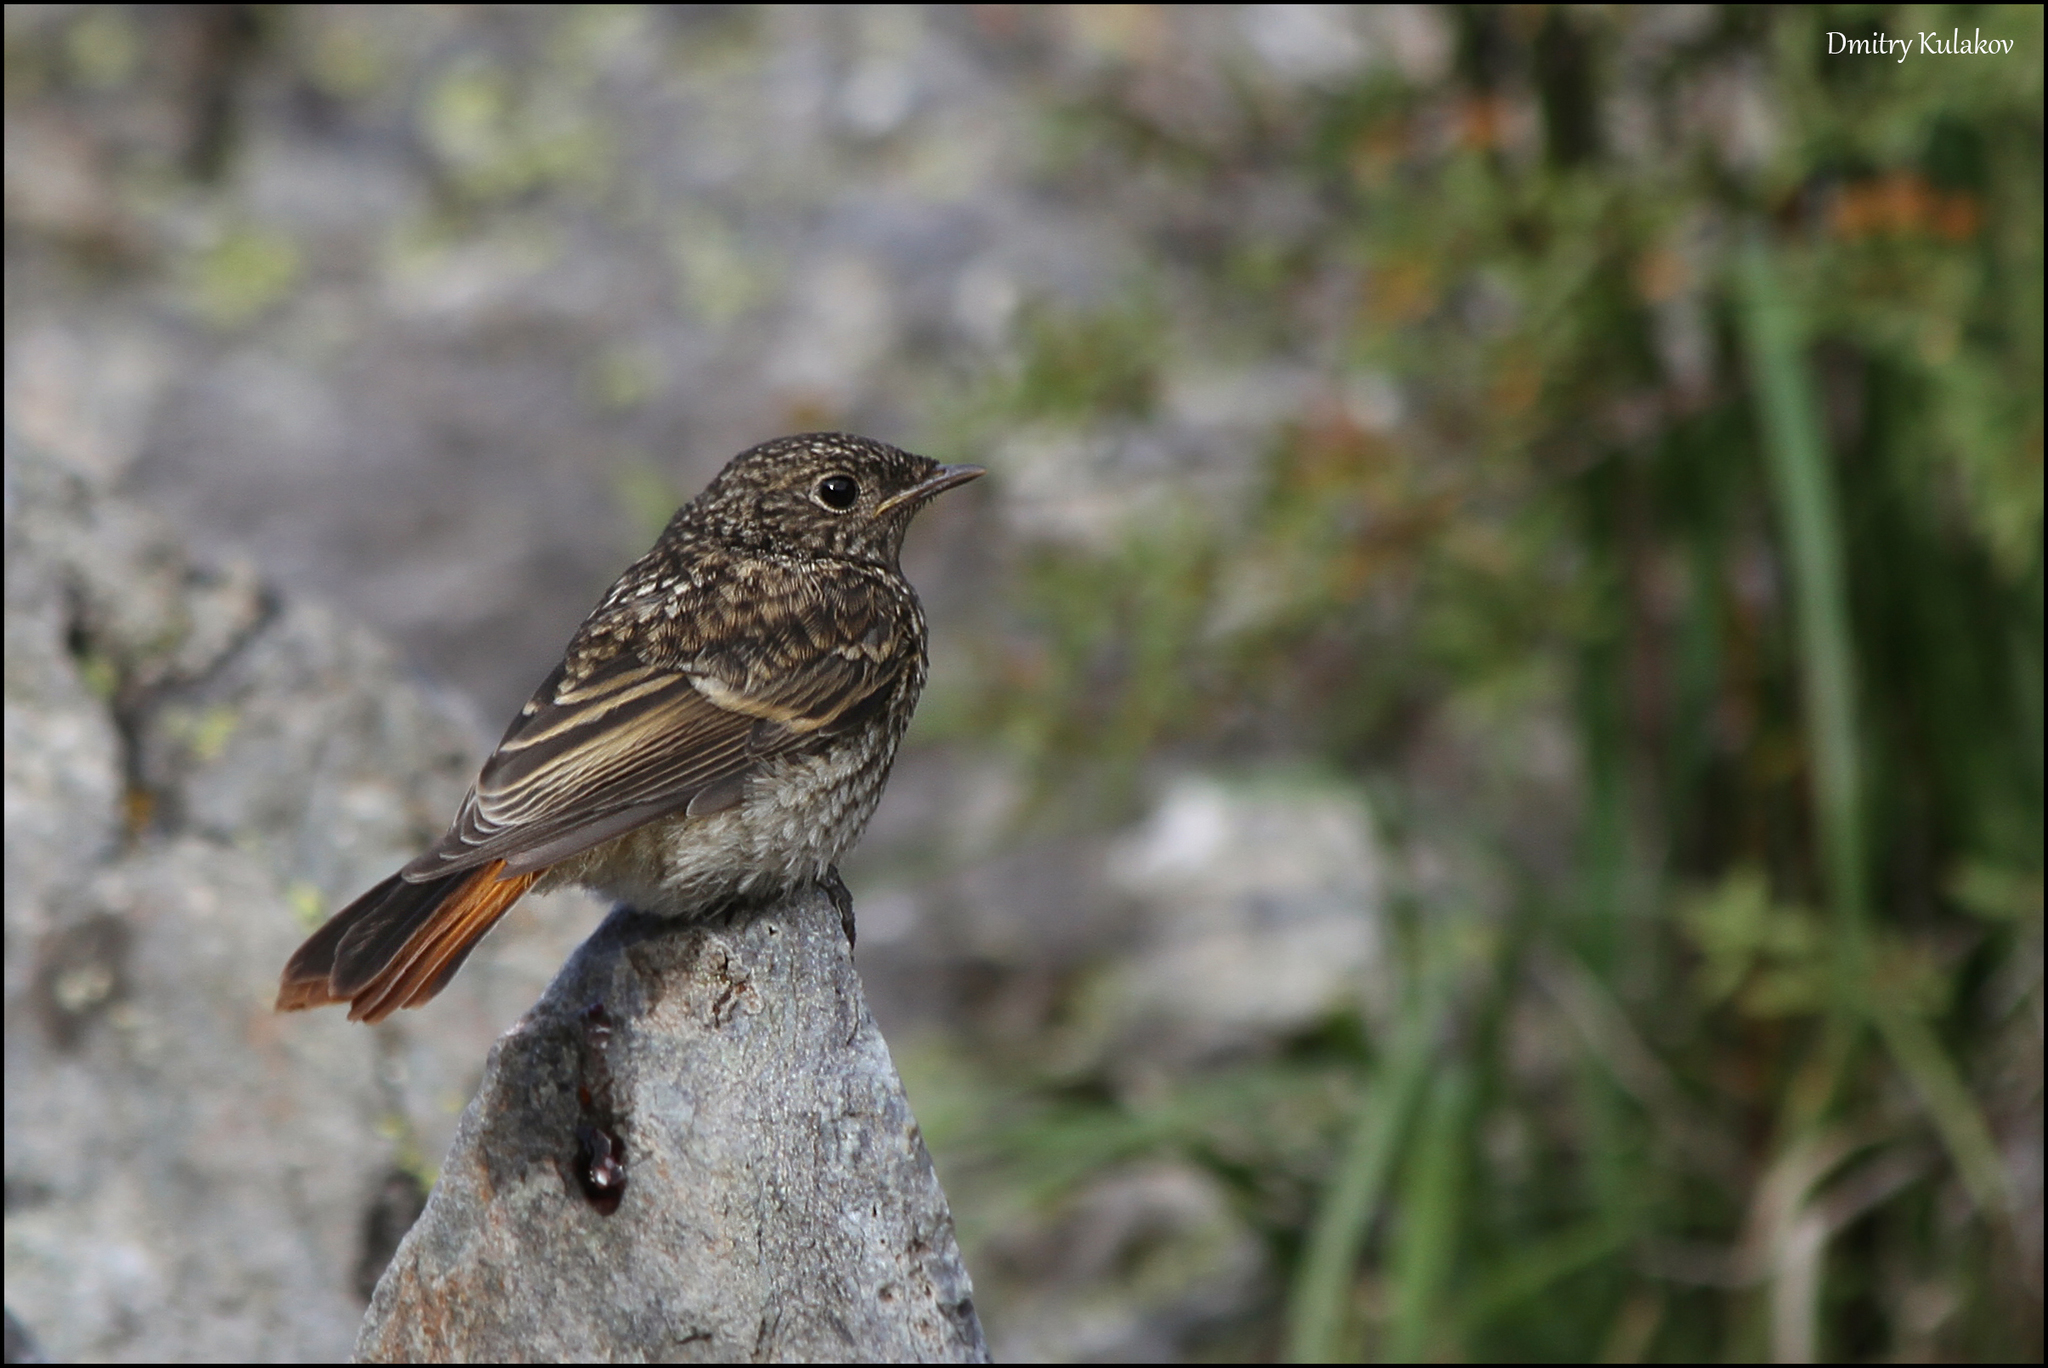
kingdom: Animalia
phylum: Chordata
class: Aves
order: Passeriformes
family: Muscicapidae
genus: Phoenicurus
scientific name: Phoenicurus erythronotus
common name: Eversmann's redstart
